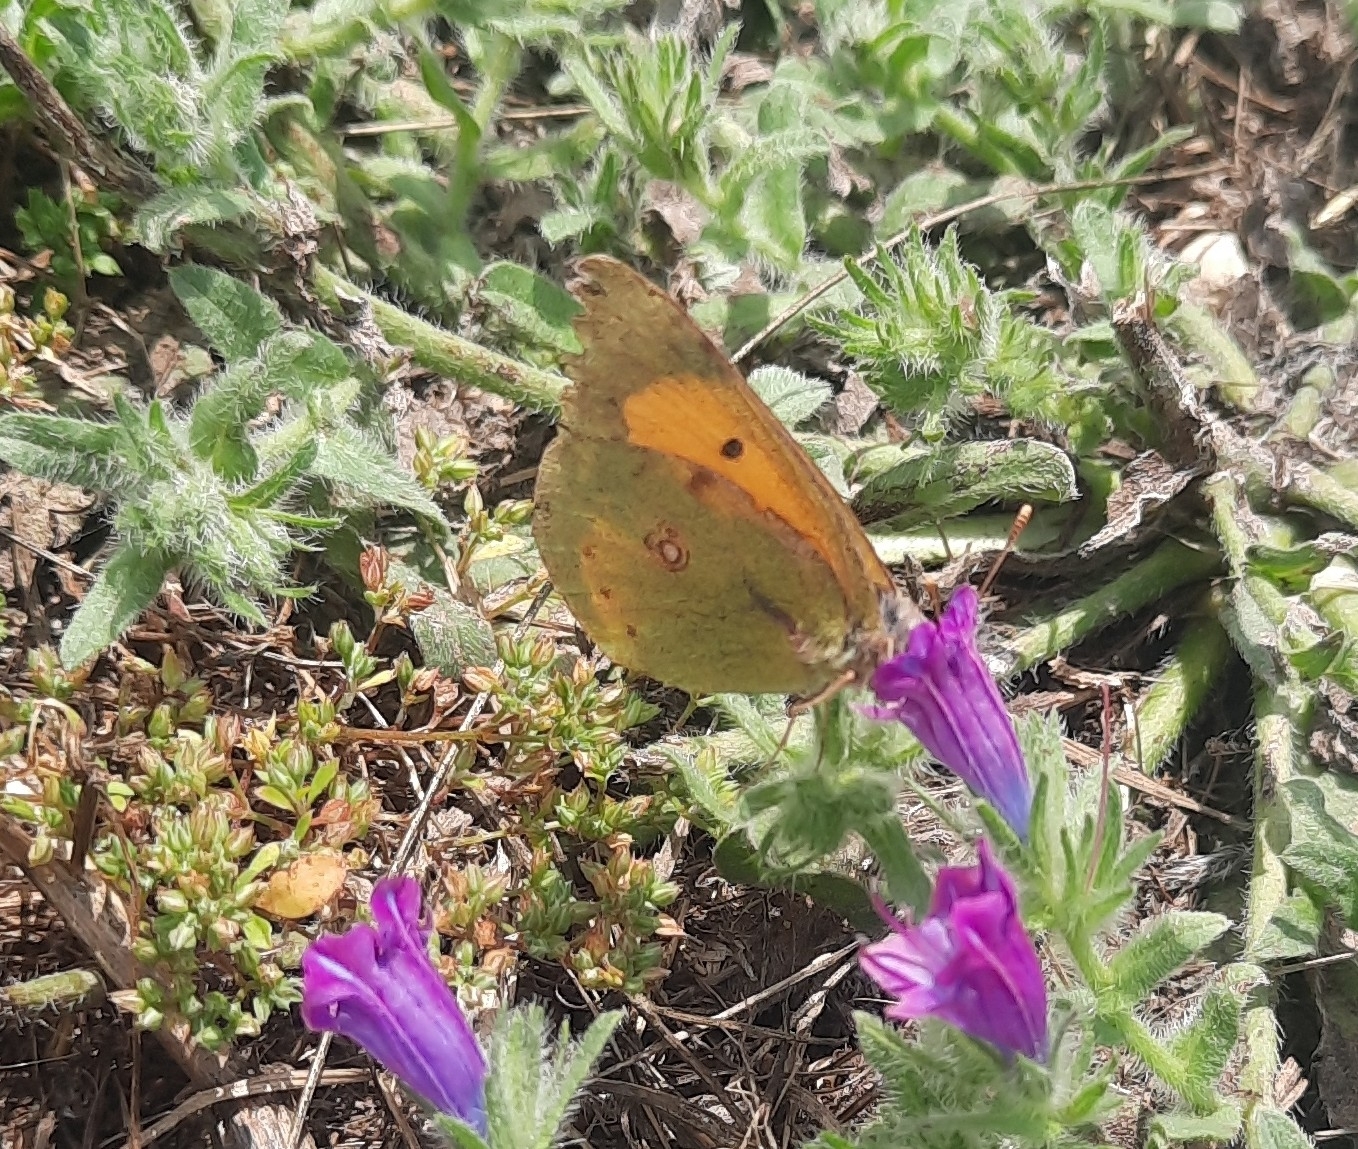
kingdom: Animalia
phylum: Arthropoda
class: Insecta
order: Lepidoptera
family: Pieridae
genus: Colias
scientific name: Colias croceus
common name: Clouded yellow
